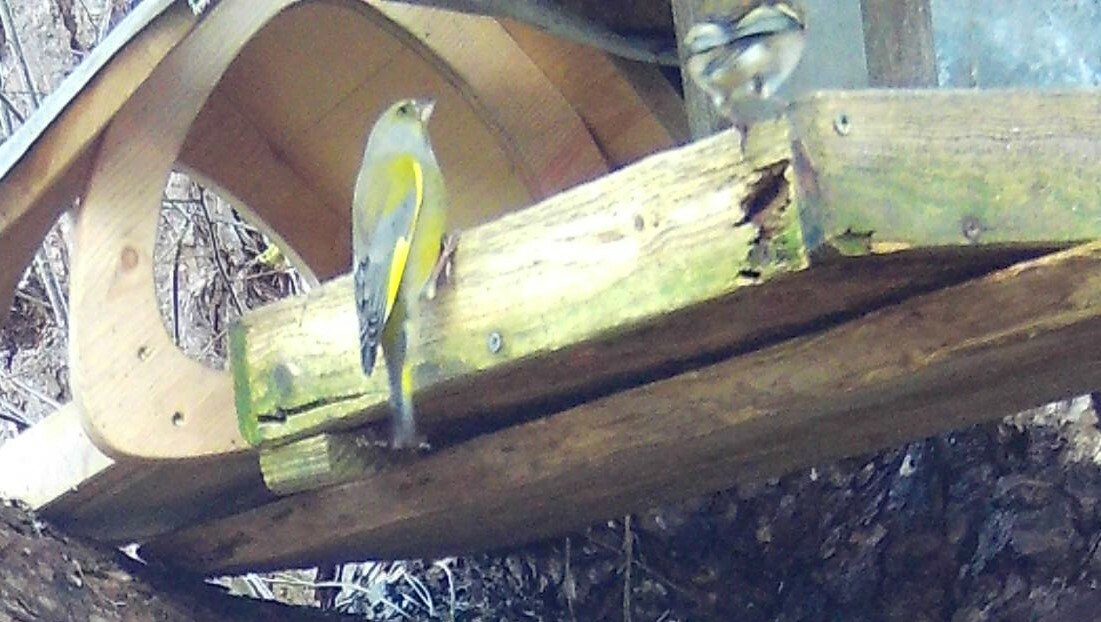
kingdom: Plantae
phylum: Tracheophyta
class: Liliopsida
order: Poales
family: Poaceae
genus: Chloris
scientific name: Chloris chloris
